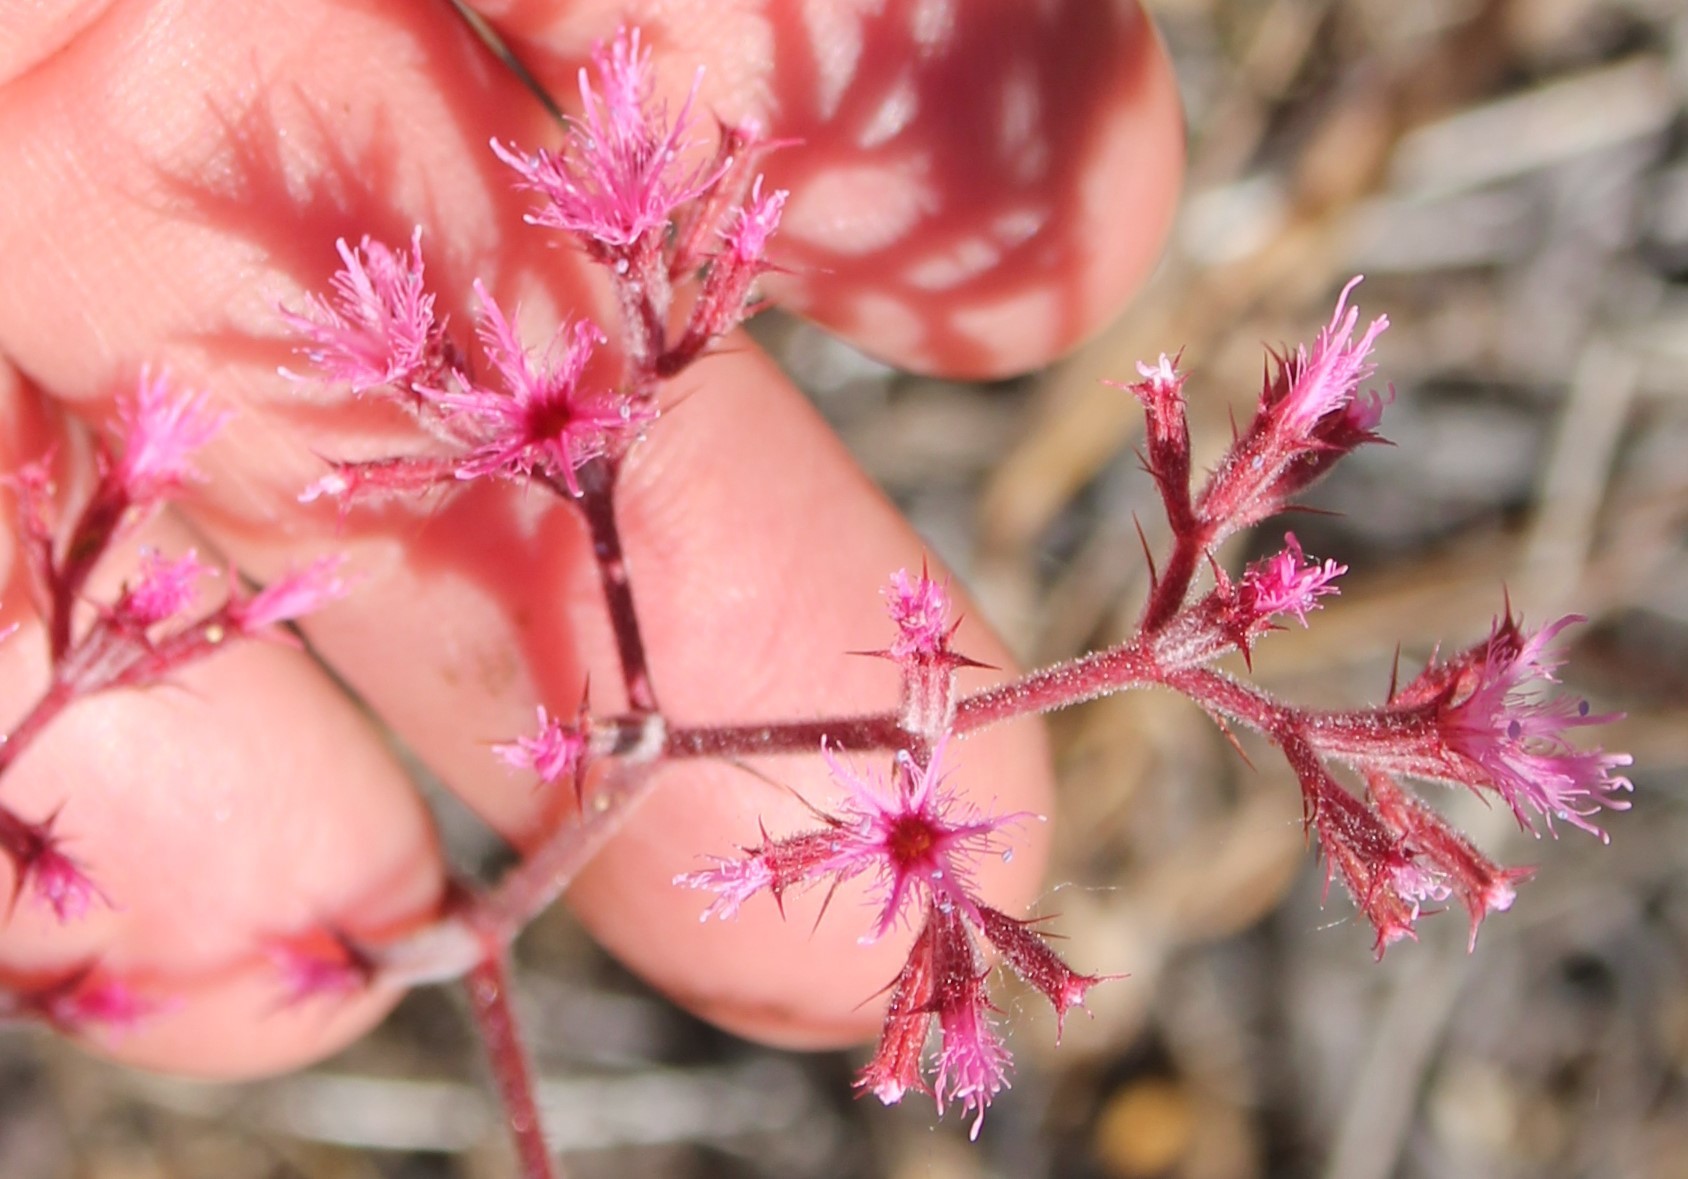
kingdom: Plantae
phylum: Tracheophyta
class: Magnoliopsida
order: Caryophyllales
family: Polygonaceae
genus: Chorizanthe
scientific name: Chorizanthe fimbriata
